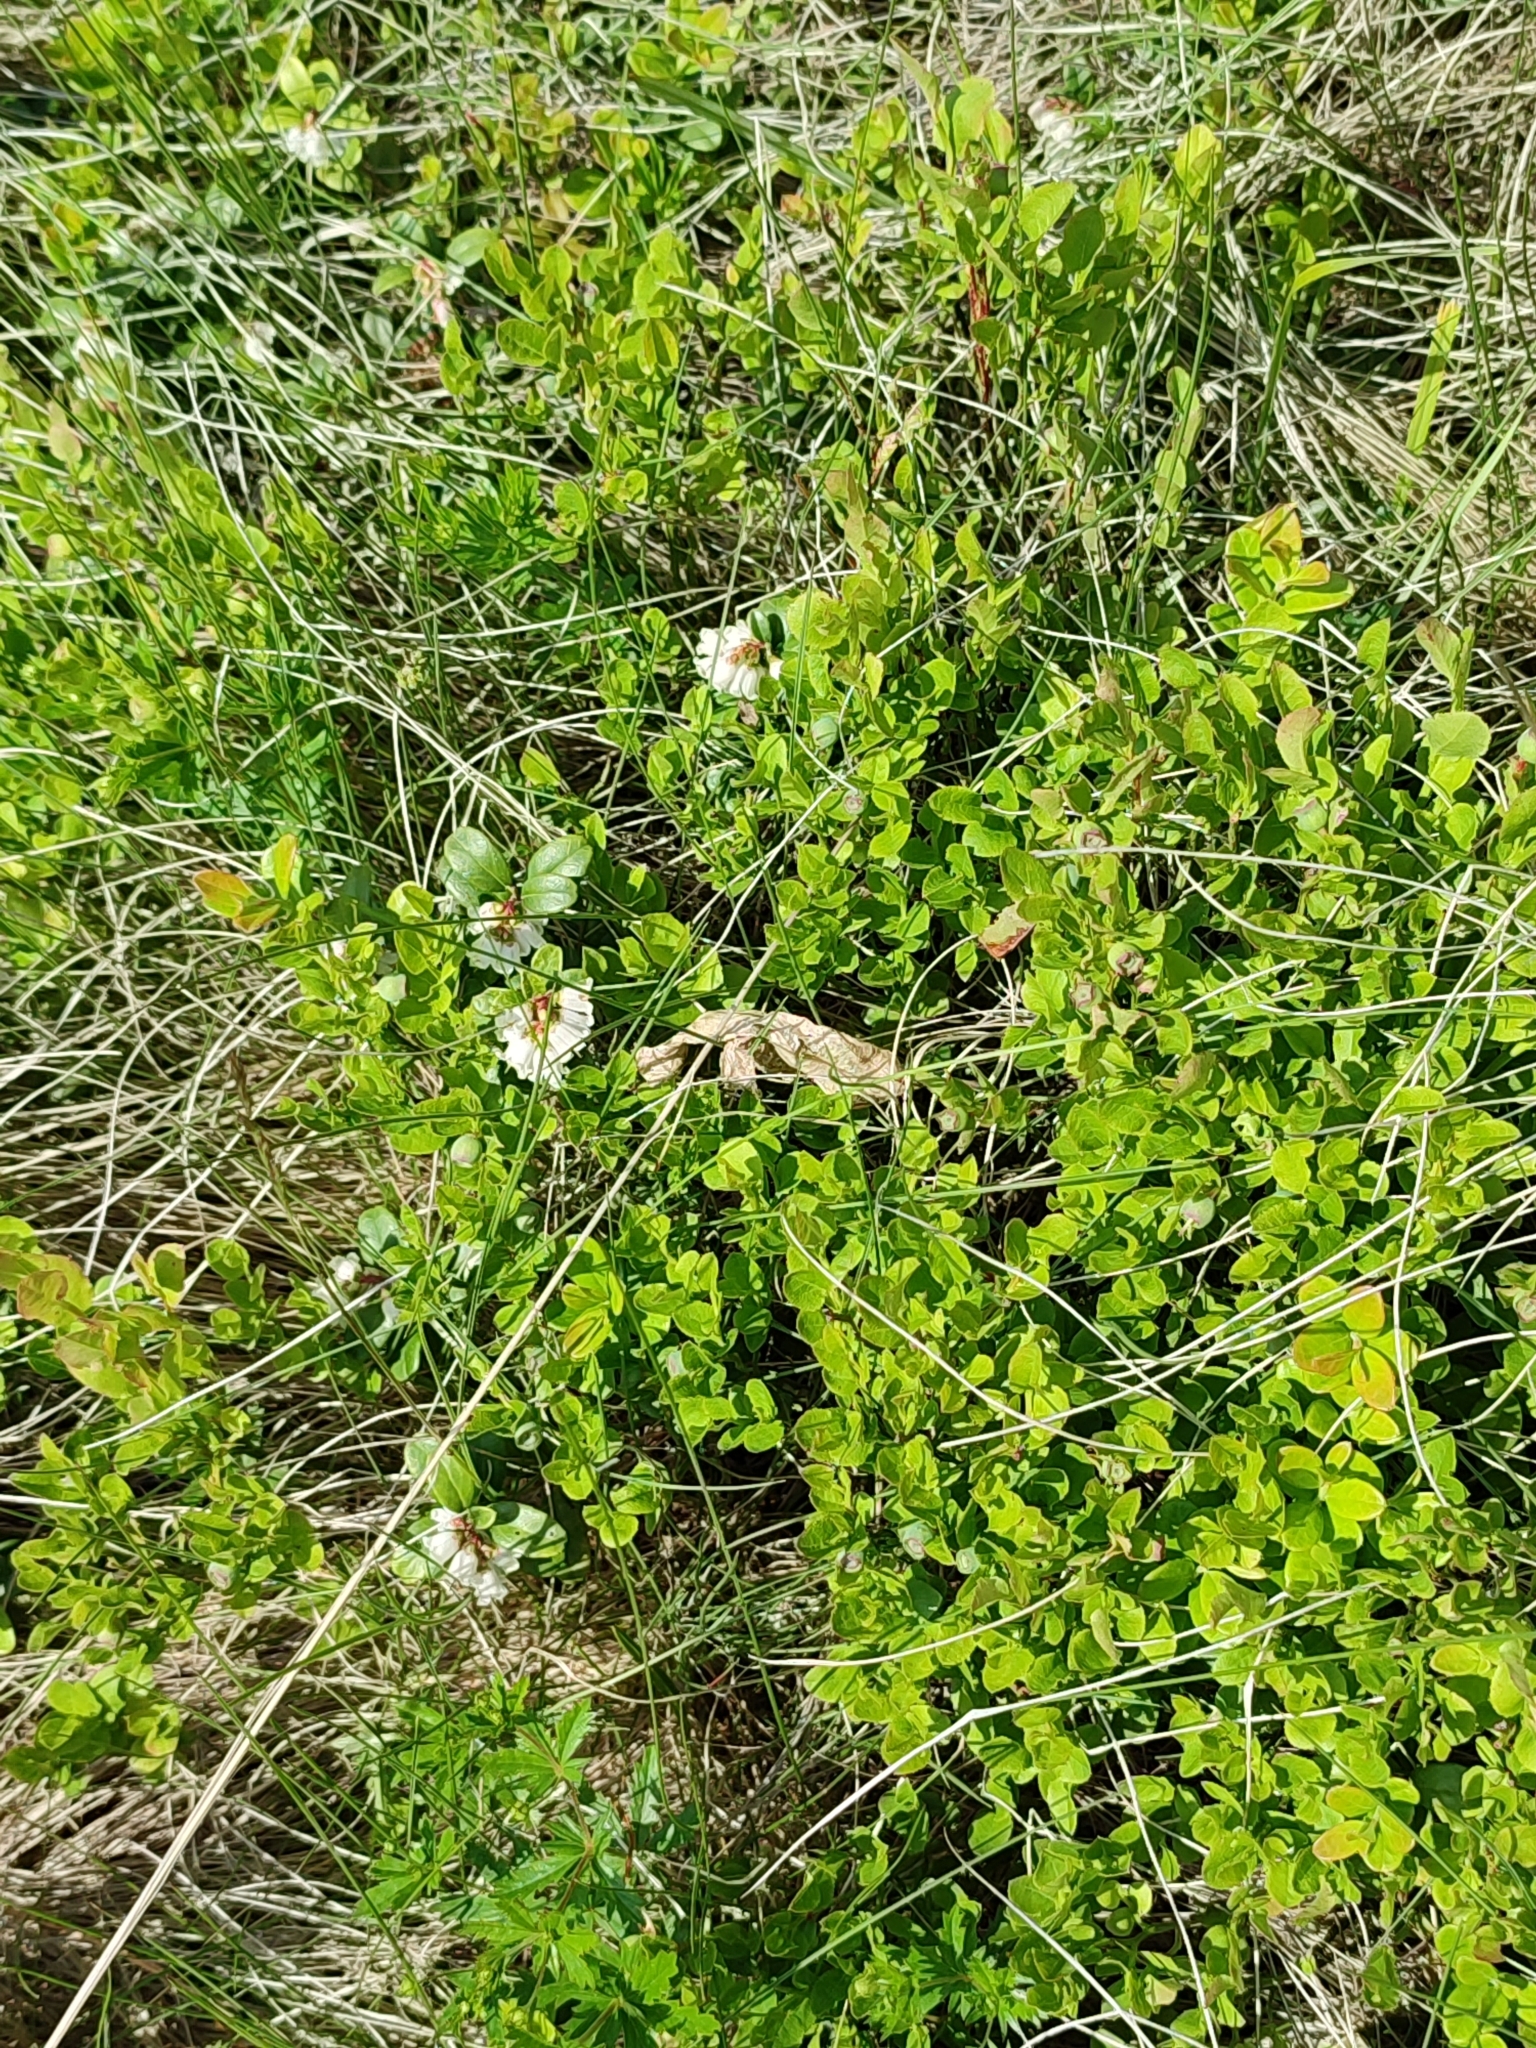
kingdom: Plantae
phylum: Tracheophyta
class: Magnoliopsida
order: Ericales
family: Ericaceae
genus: Vaccinium
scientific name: Vaccinium vitis-idaea
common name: Cowberry
